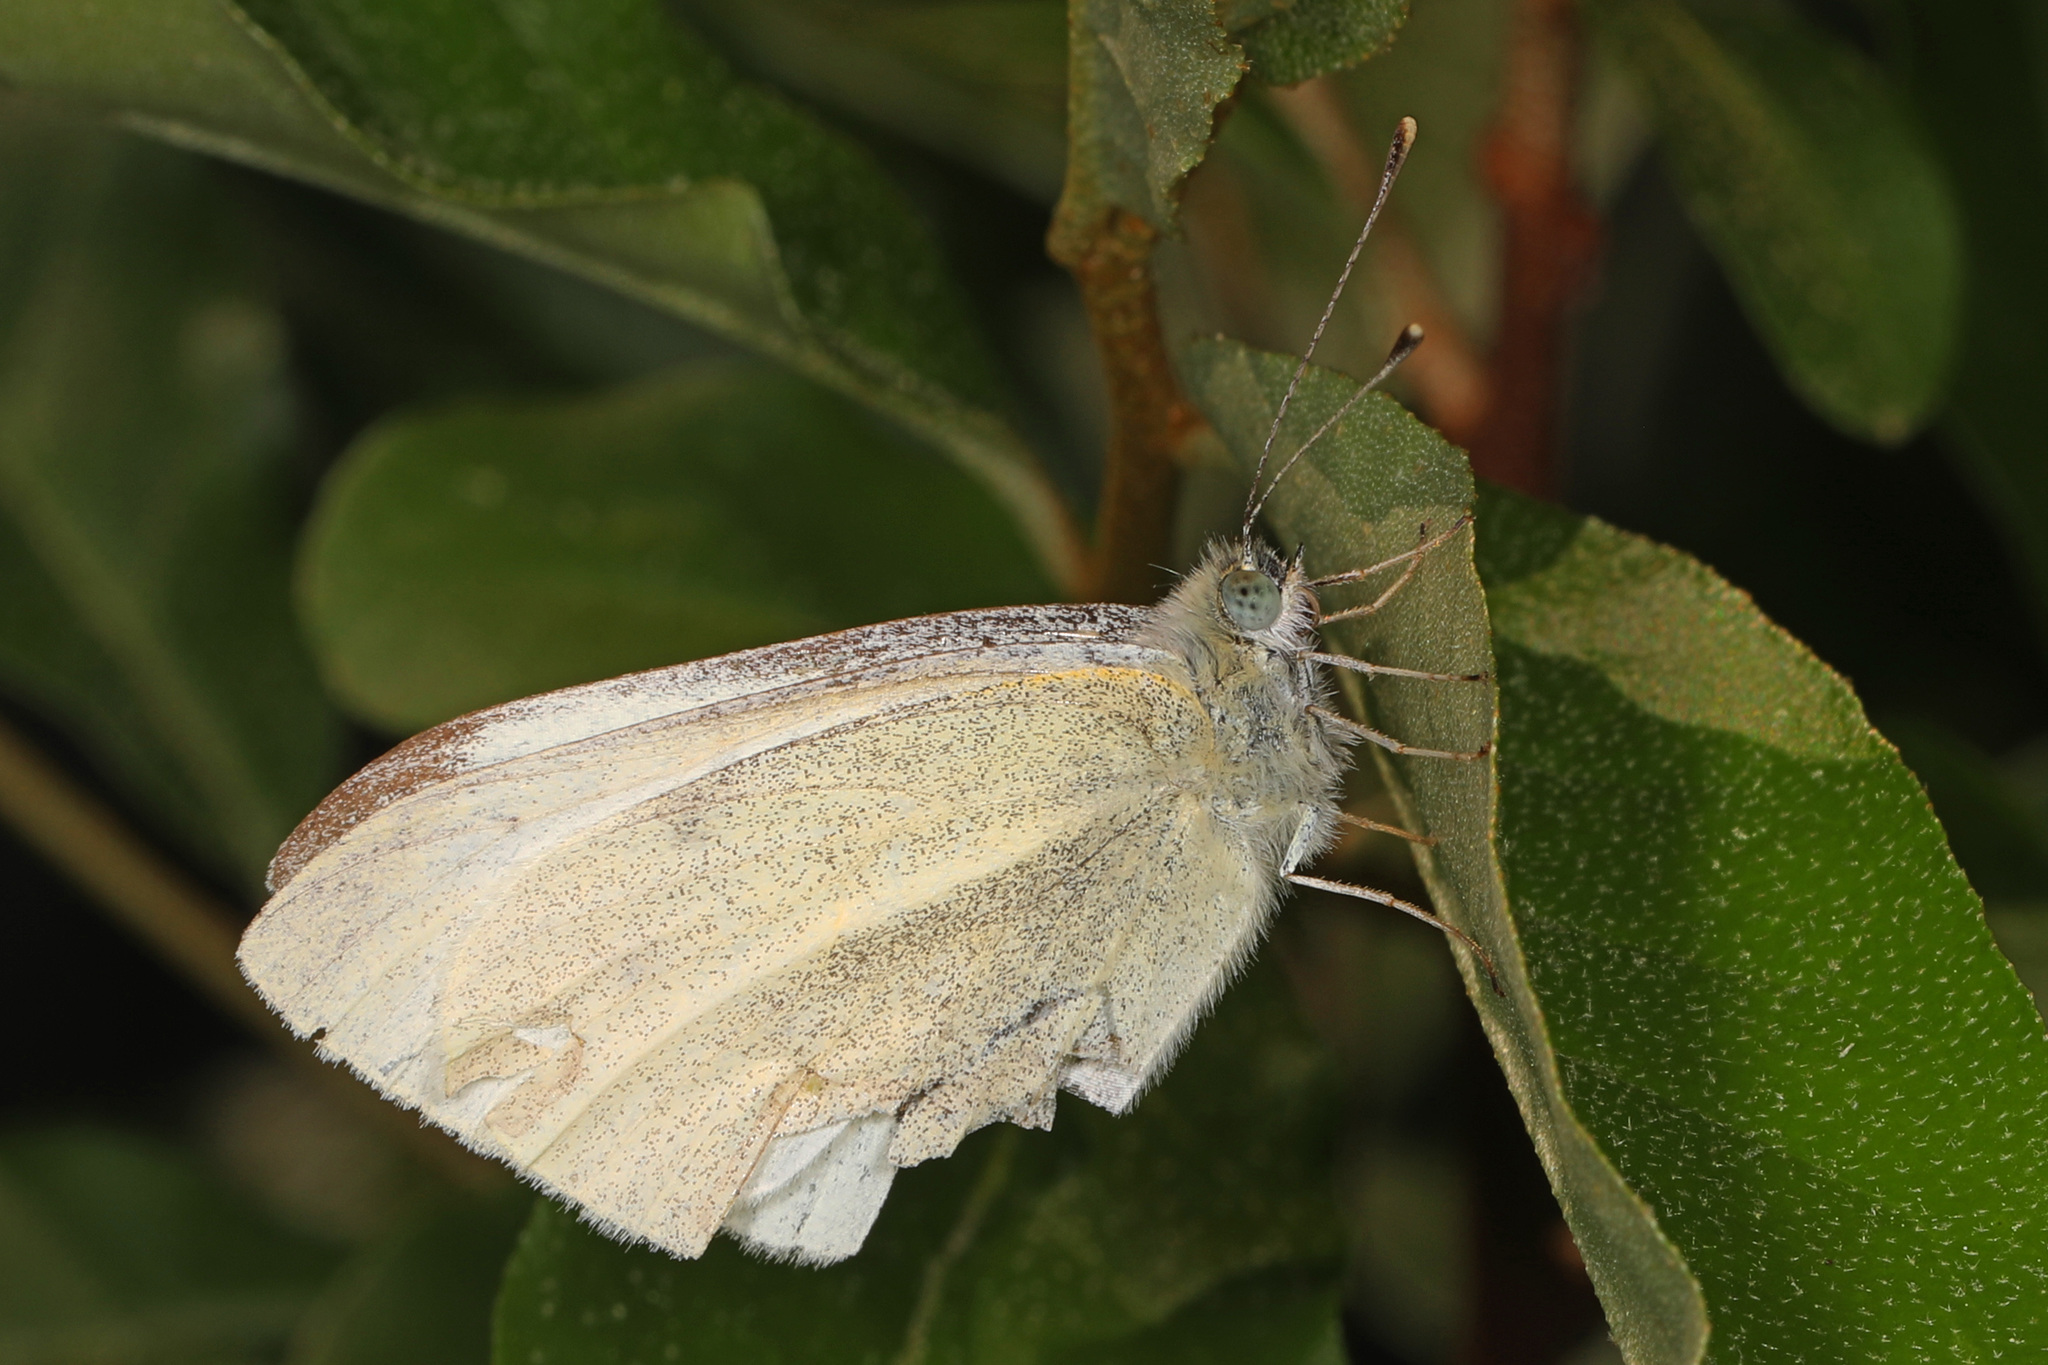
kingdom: Animalia
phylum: Arthropoda
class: Insecta
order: Lepidoptera
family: Pieridae
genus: Pieris
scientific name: Pieris rapae
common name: Small white
